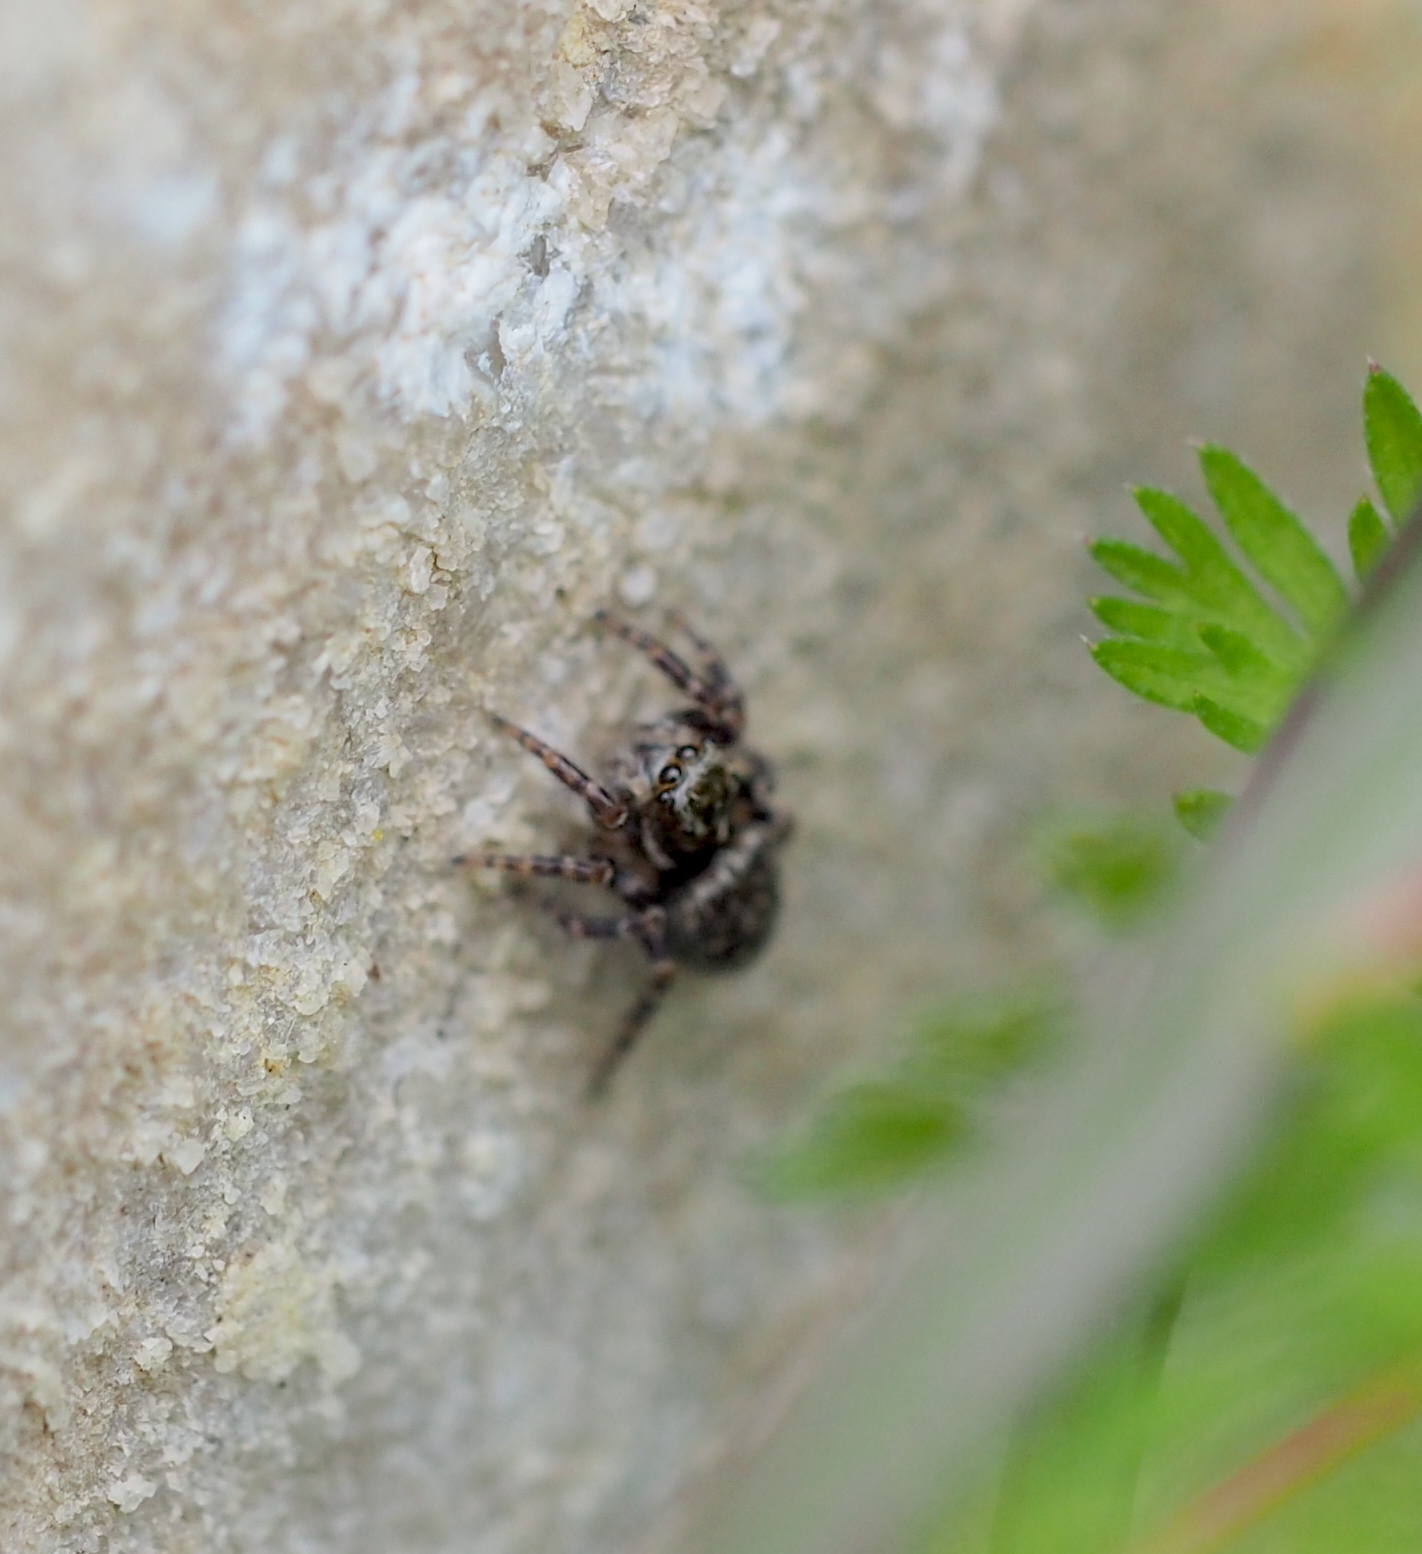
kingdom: Animalia
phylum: Arthropoda
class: Arachnida
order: Araneae
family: Salticidae
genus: Pseudeuophrys
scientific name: Pseudeuophrys obsoleta
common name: Whelk-shell jumper
